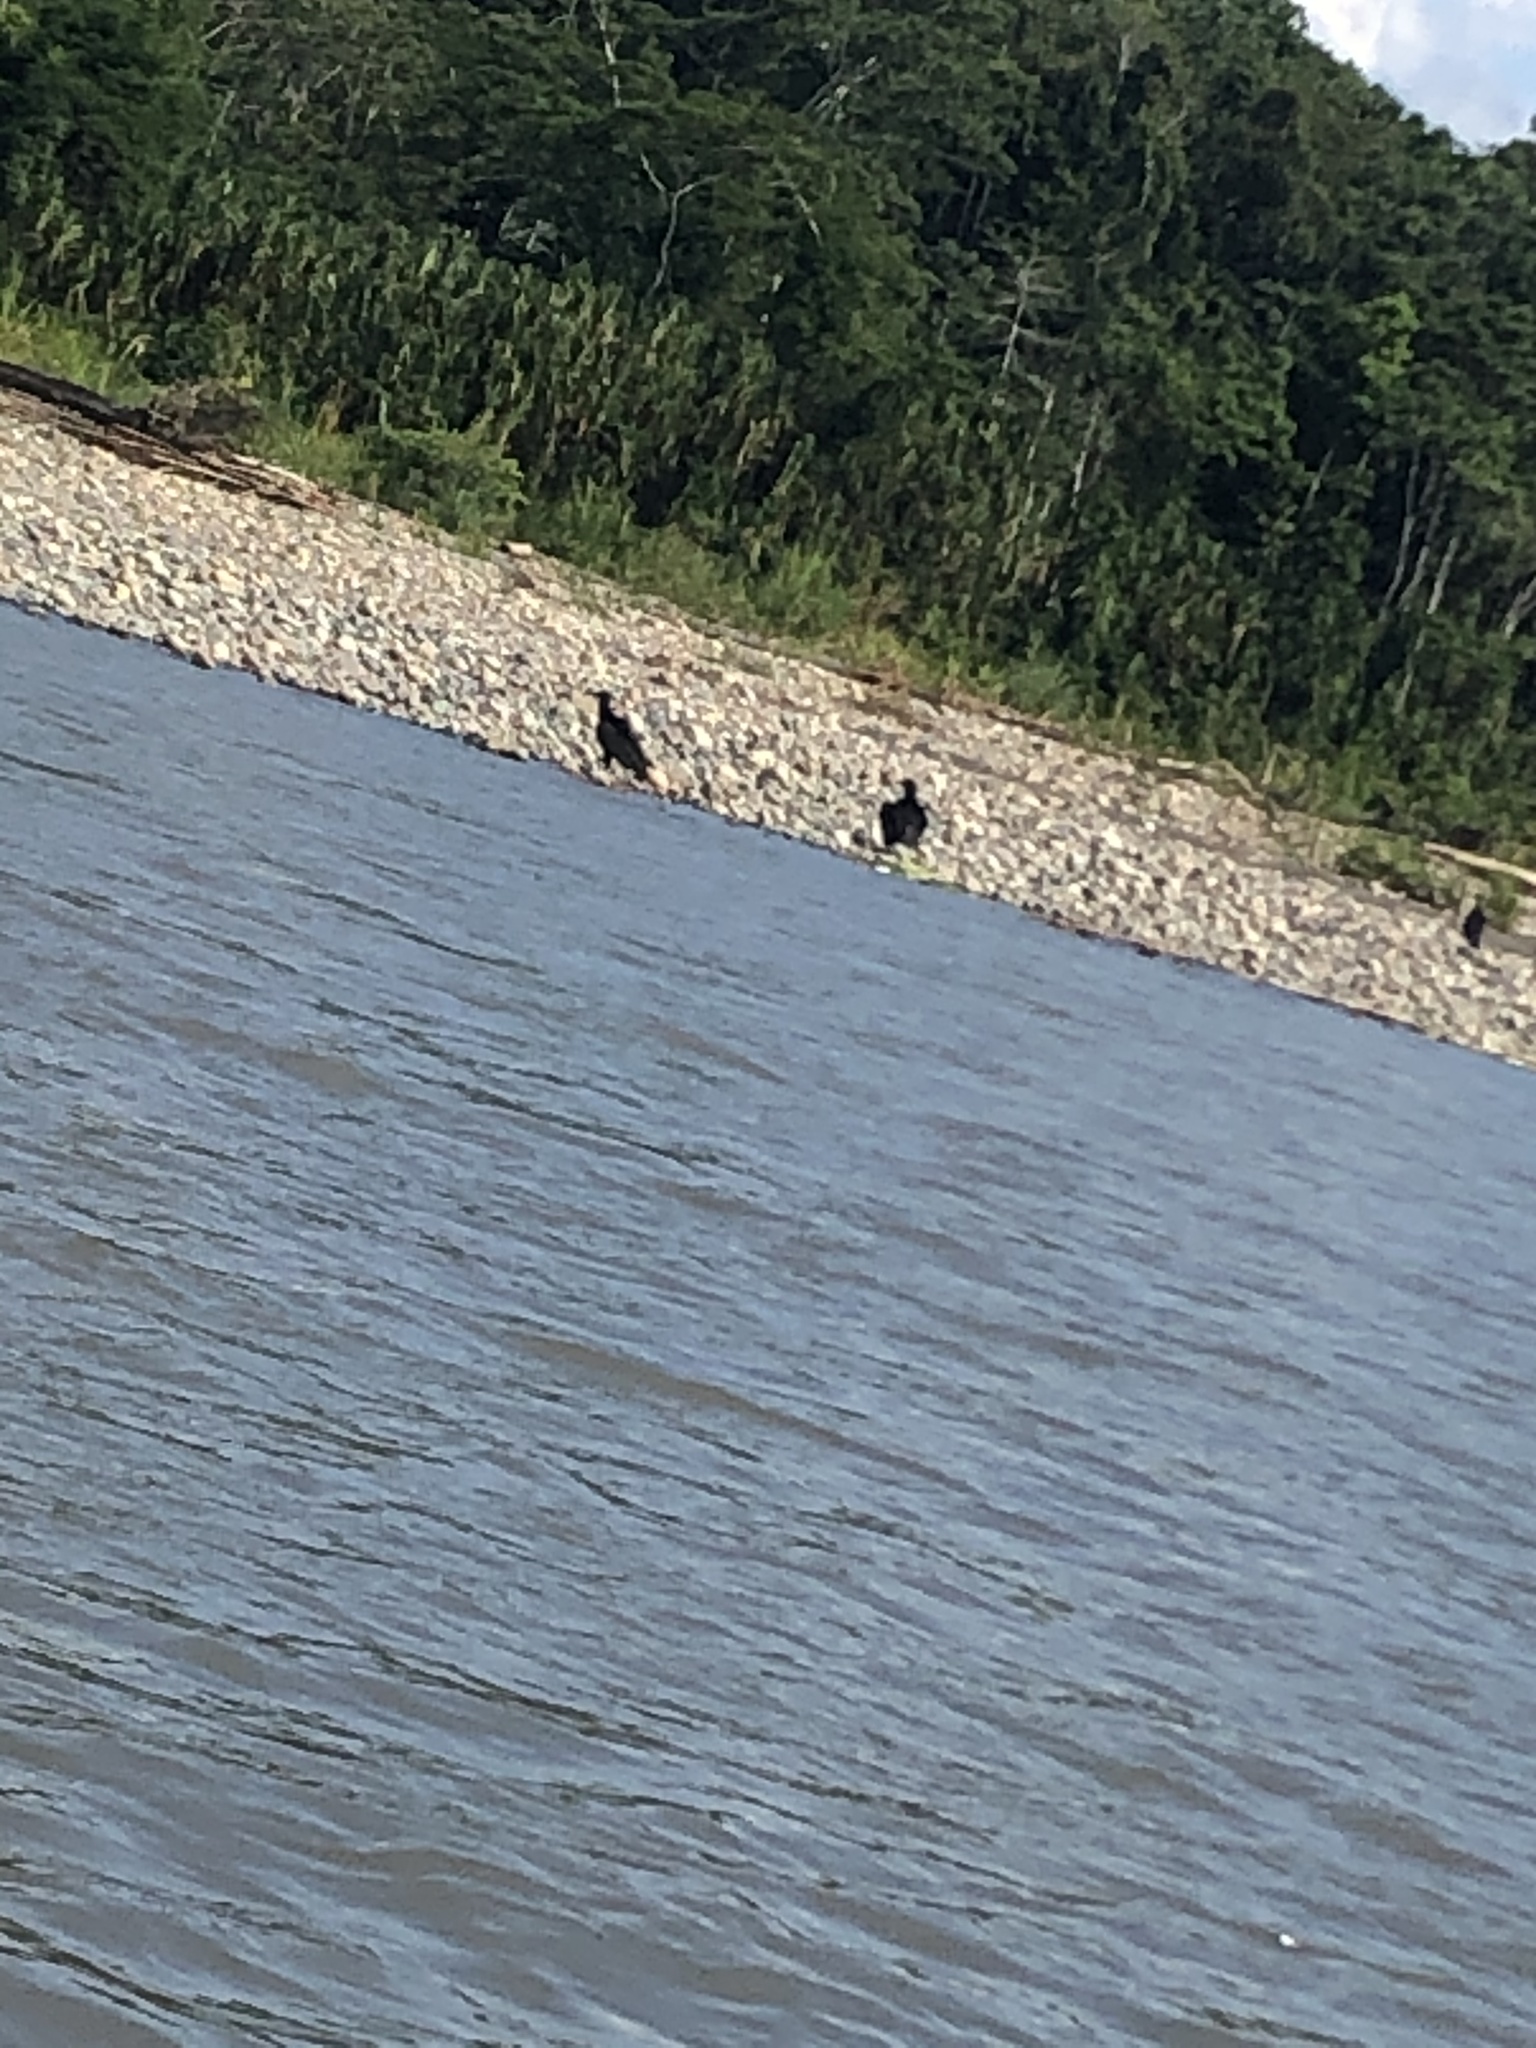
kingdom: Animalia
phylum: Chordata
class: Aves
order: Accipitriformes
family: Cathartidae
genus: Coragyps
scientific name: Coragyps atratus
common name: Black vulture
